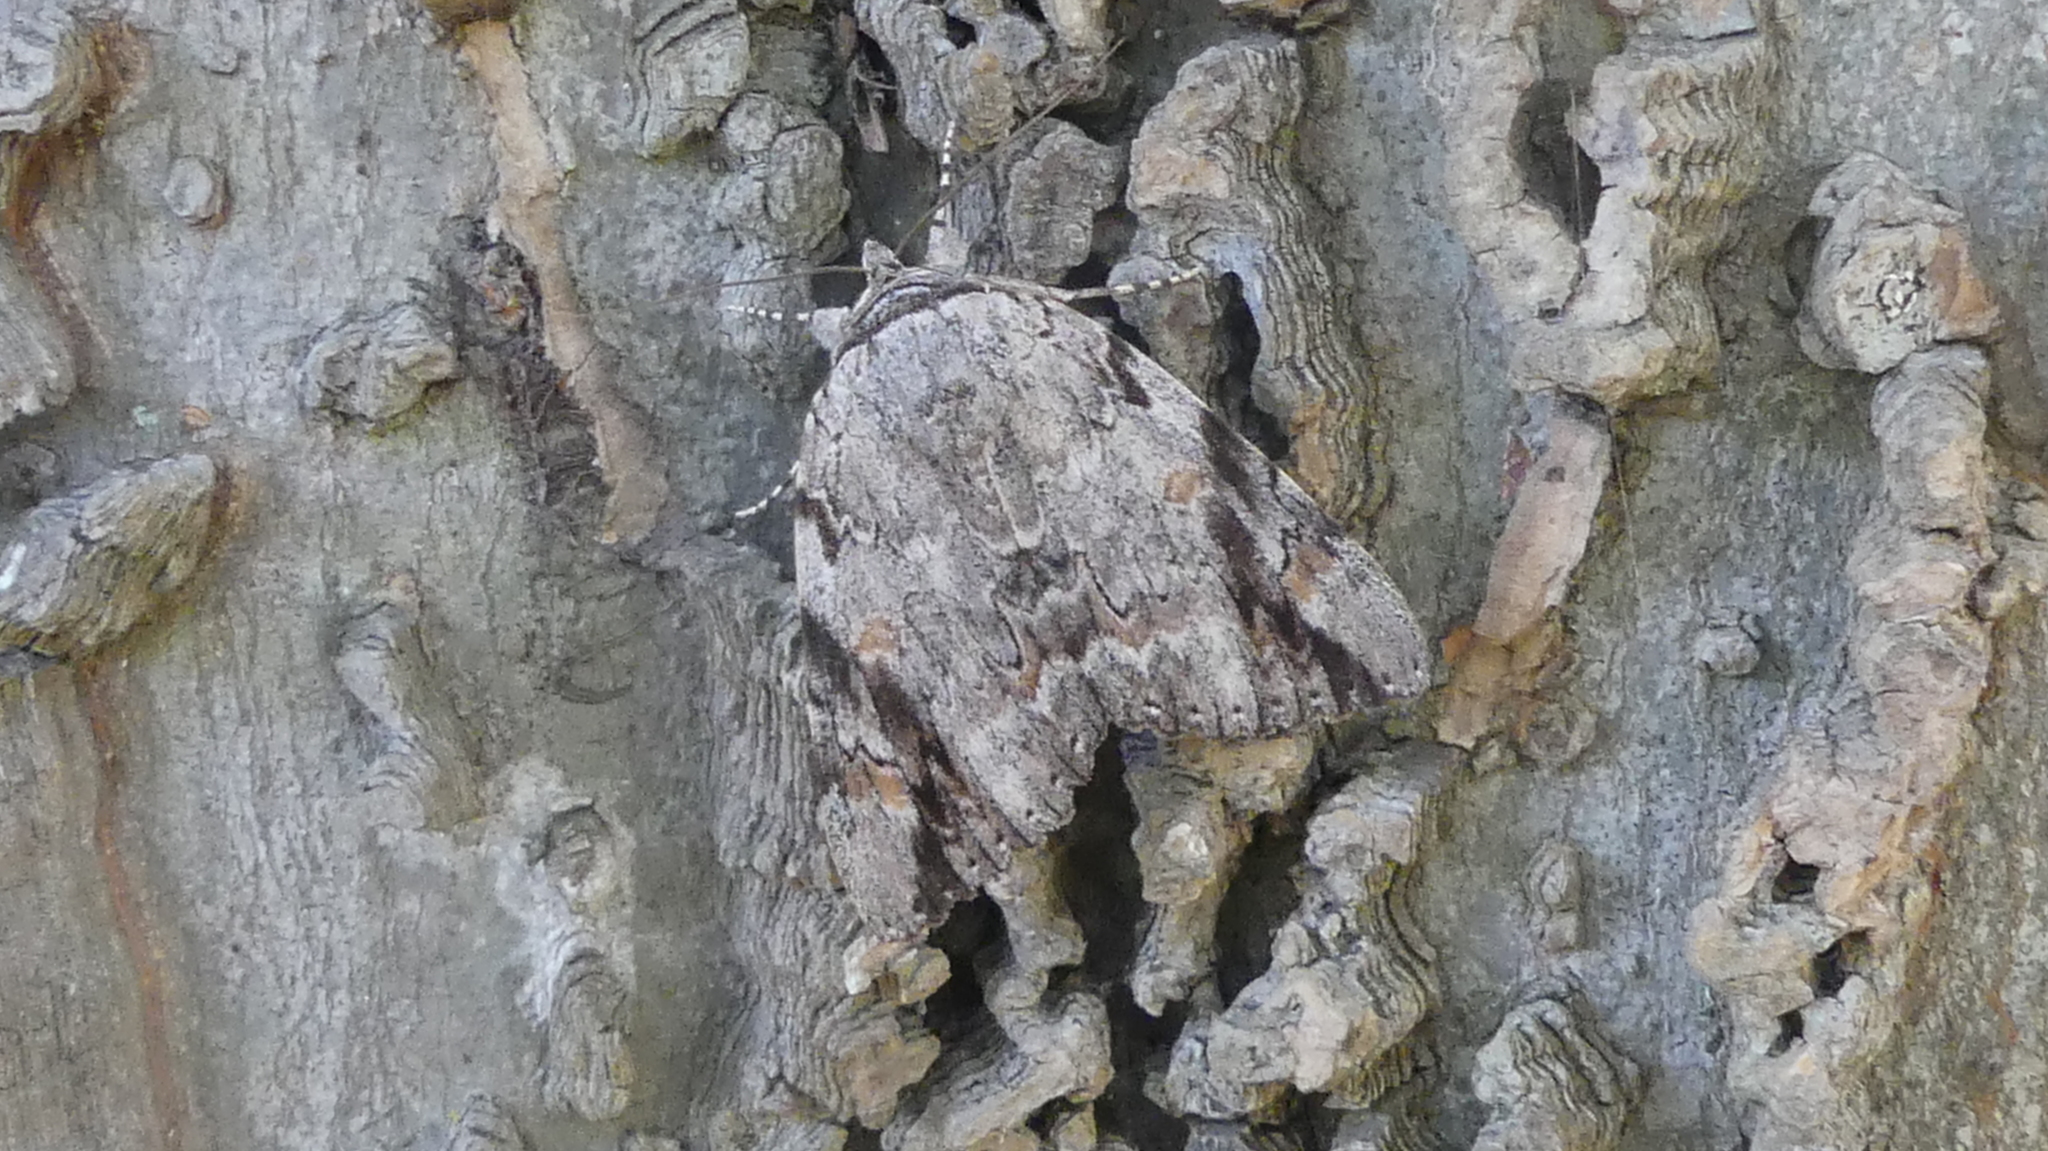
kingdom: Animalia
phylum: Arthropoda
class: Insecta
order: Lepidoptera
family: Erebidae
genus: Catocala
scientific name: Catocala maestosa
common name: Sad underwing
